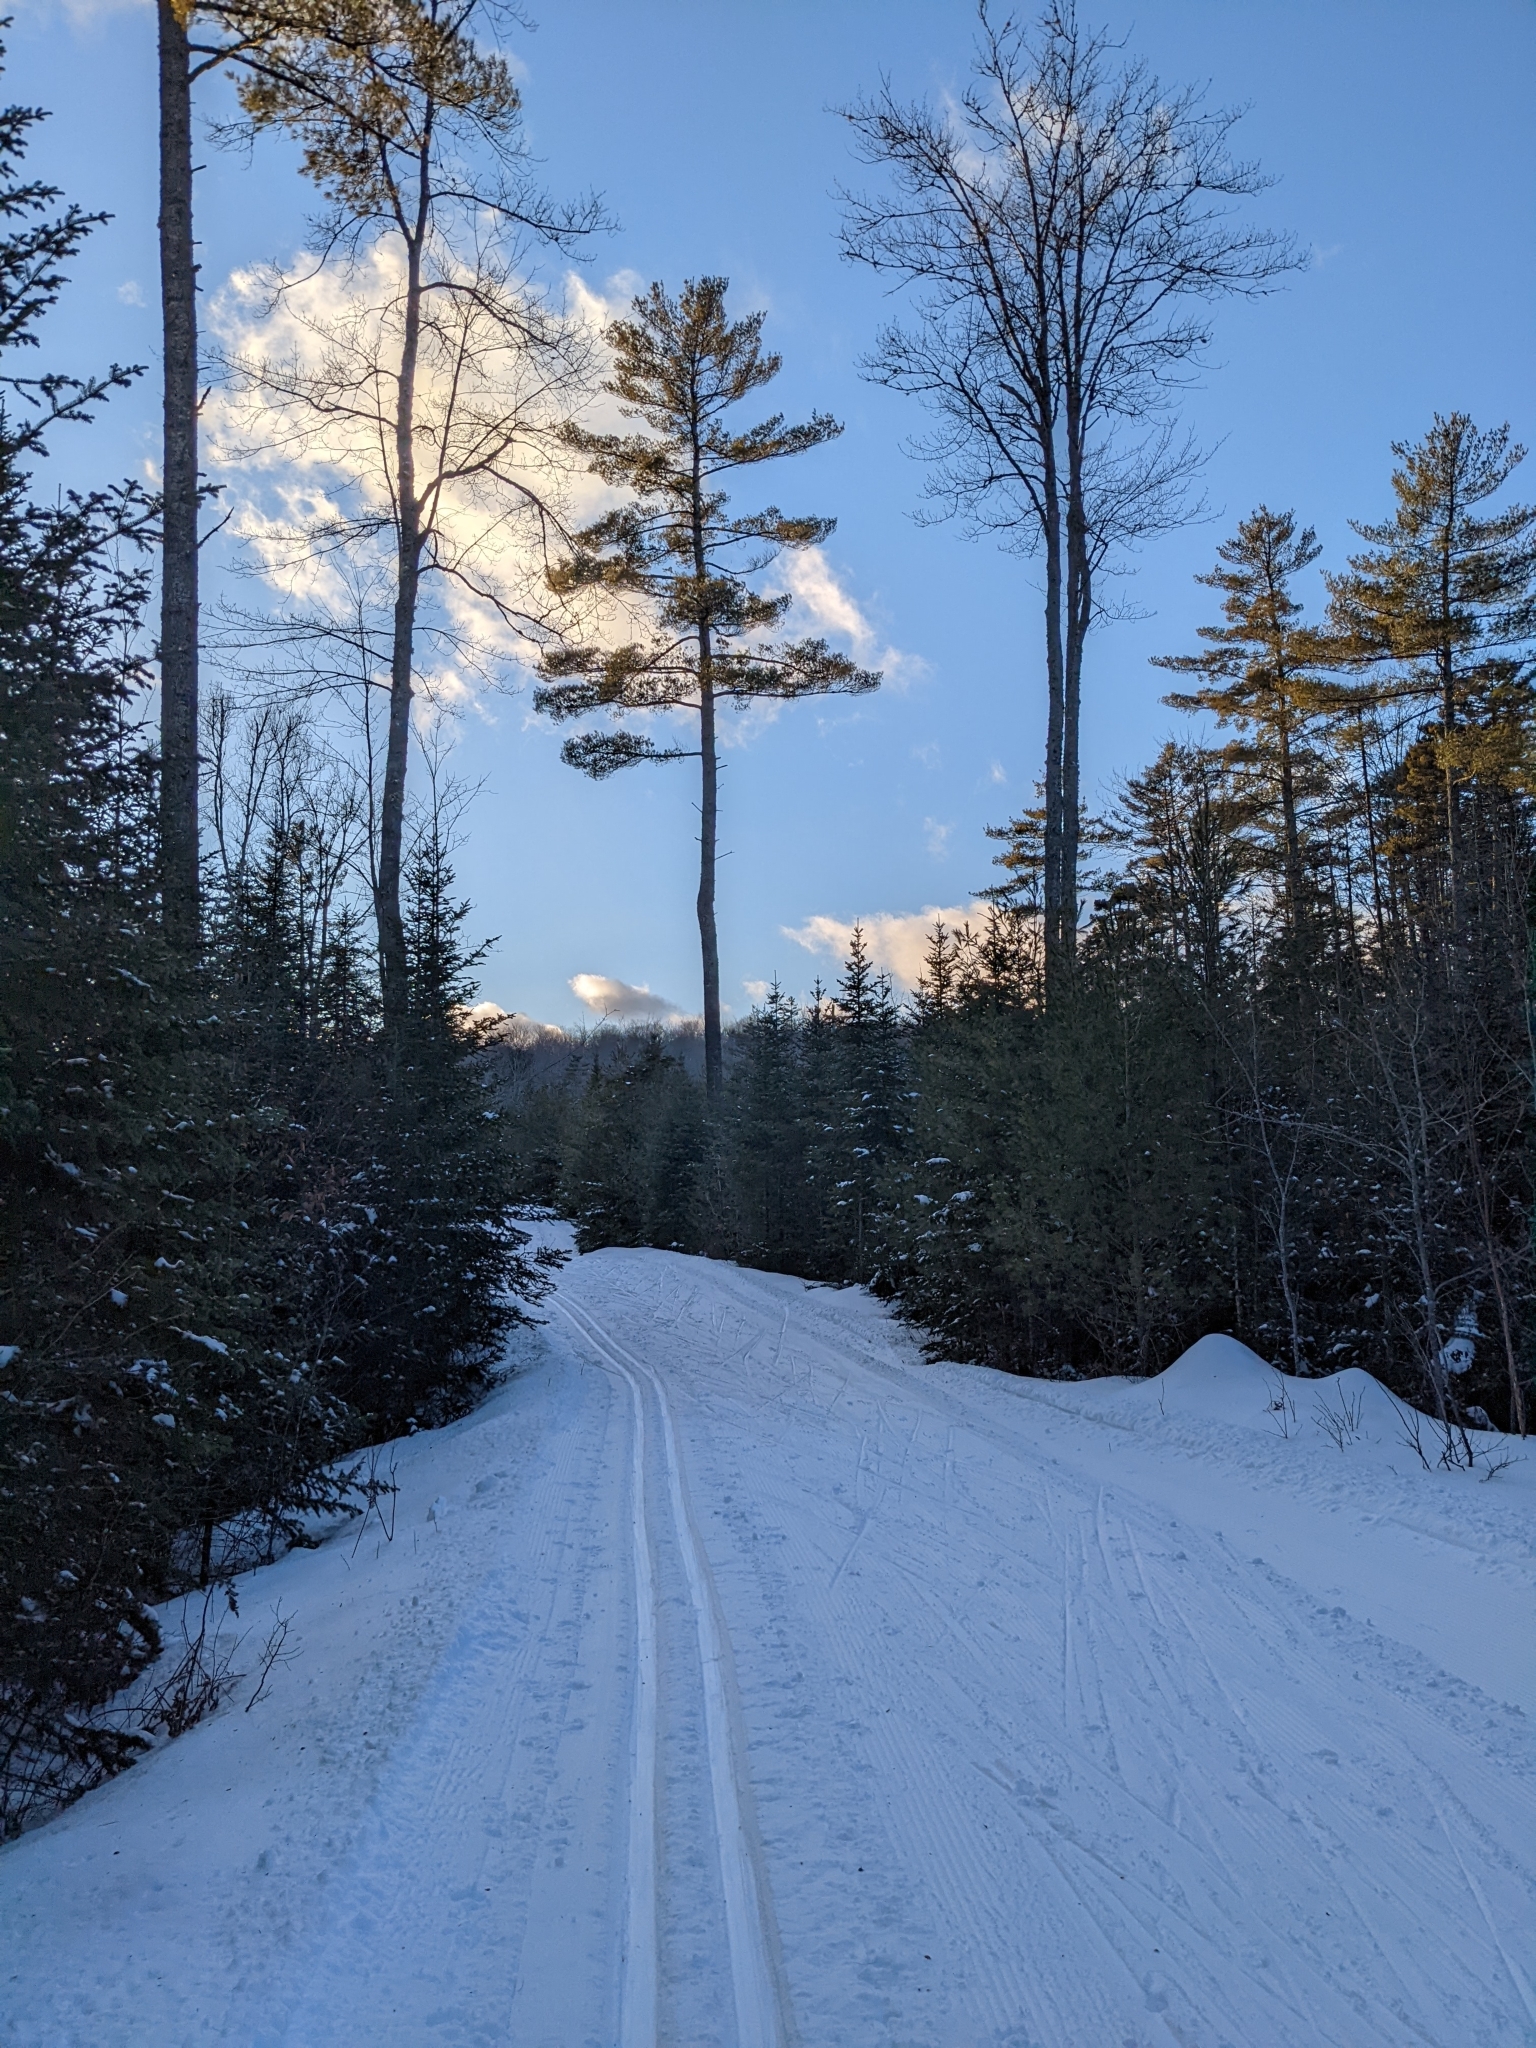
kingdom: Plantae
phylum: Tracheophyta
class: Pinopsida
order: Pinales
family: Pinaceae
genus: Pinus
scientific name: Pinus strobus
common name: Weymouth pine
